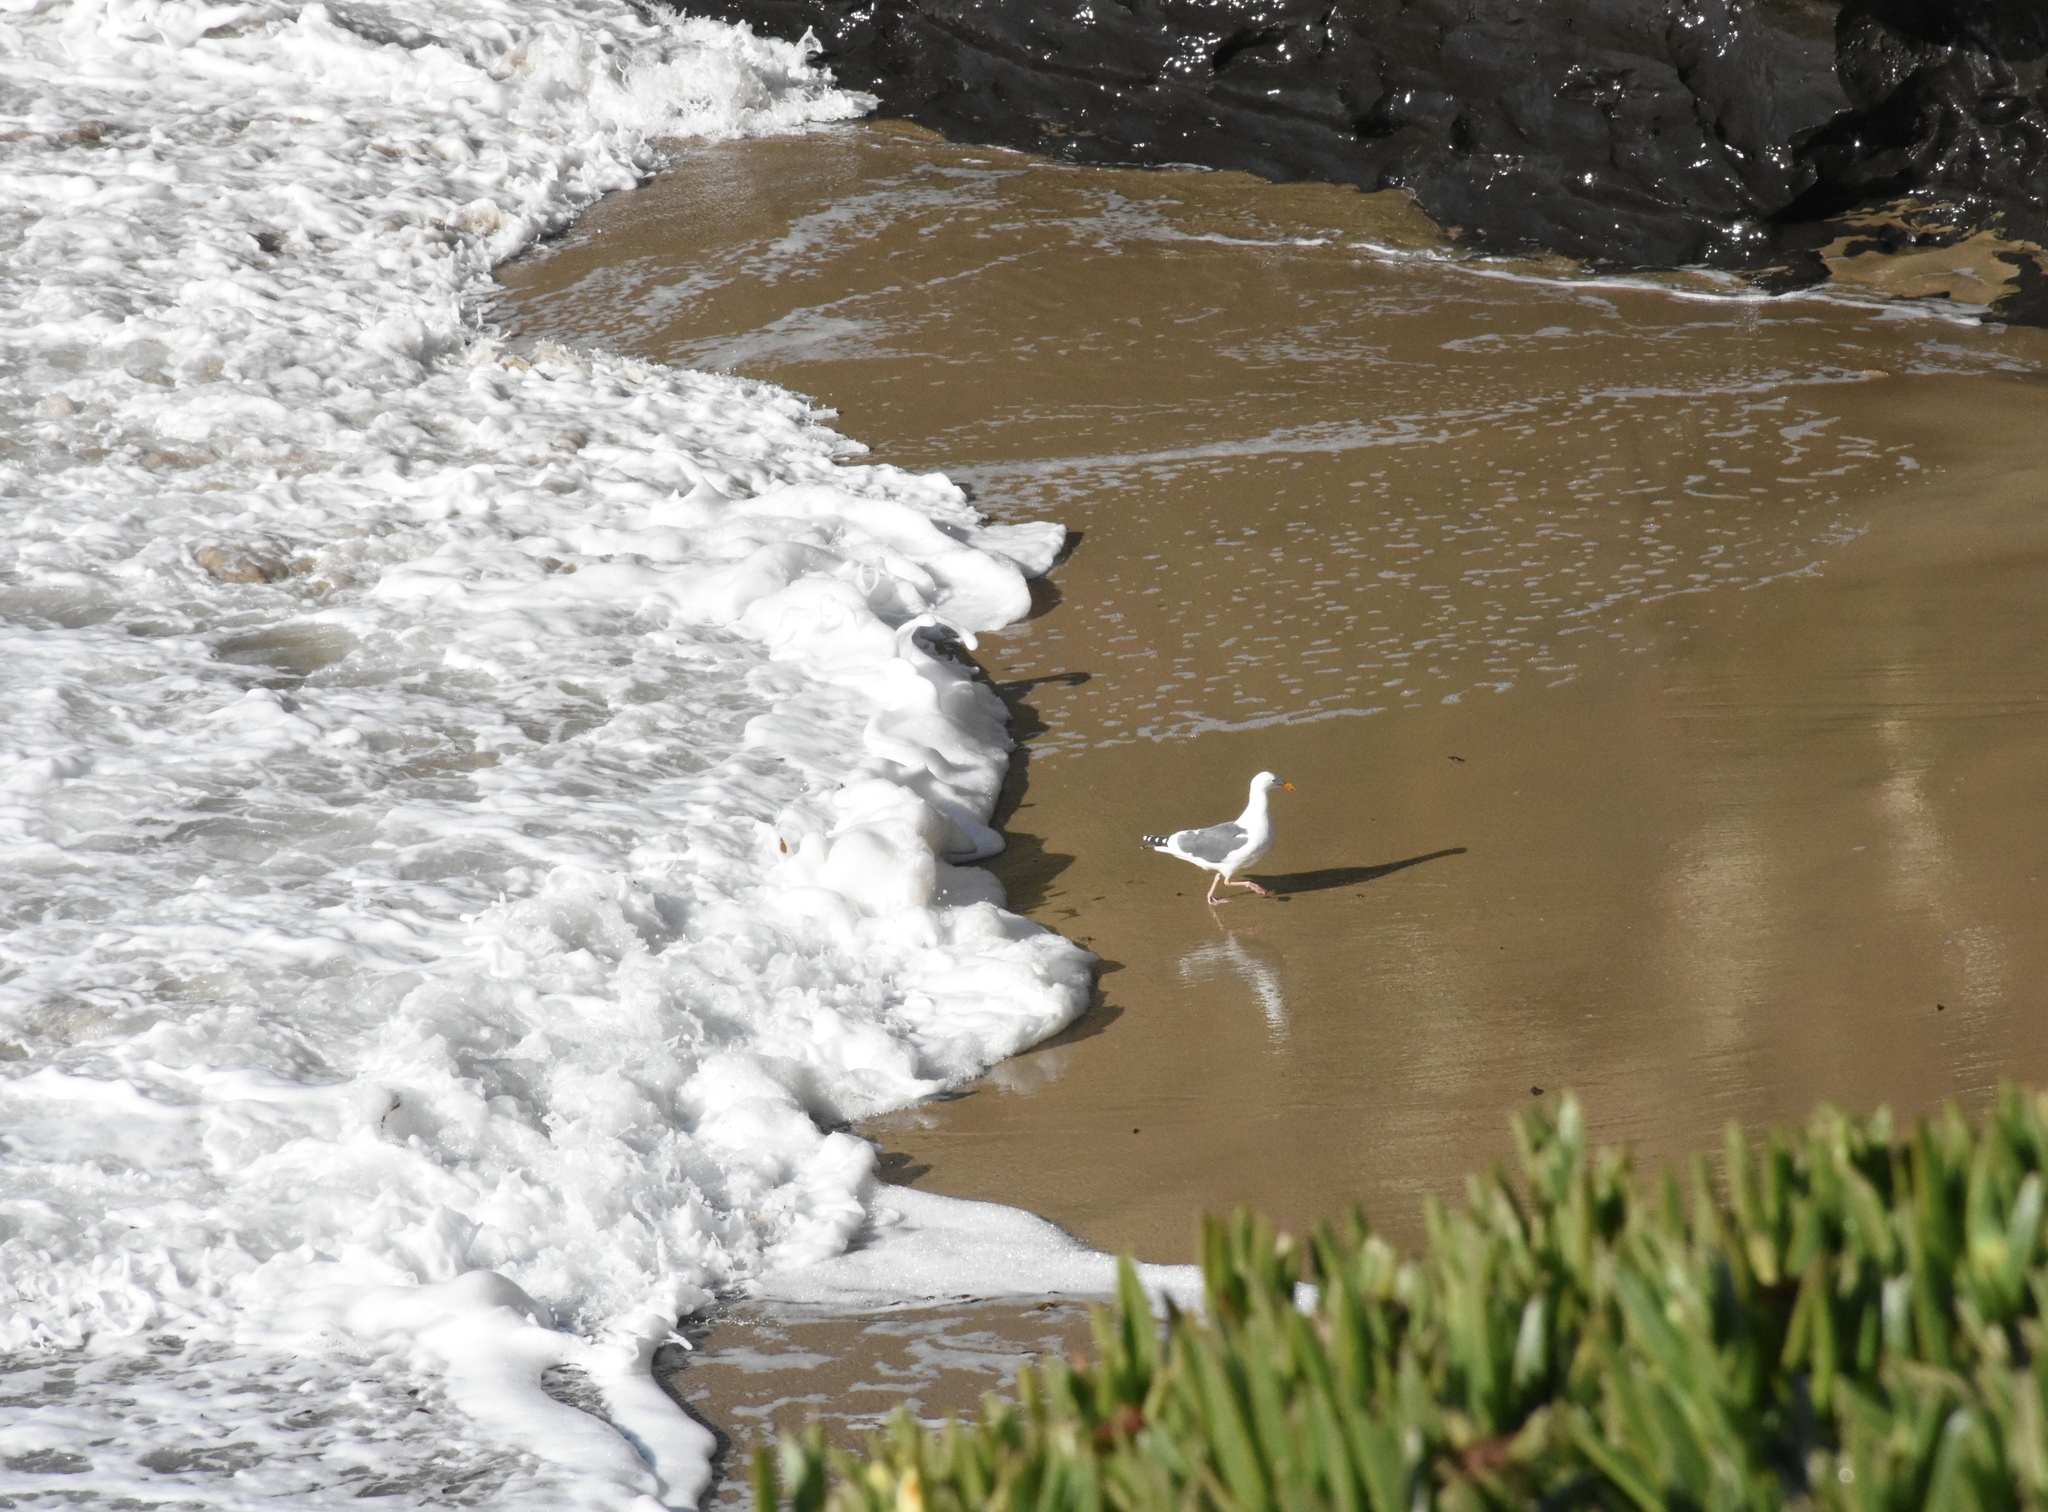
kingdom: Animalia
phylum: Chordata
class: Aves
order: Charadriiformes
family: Laridae
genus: Larus
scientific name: Larus occidentalis
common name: Western gull
